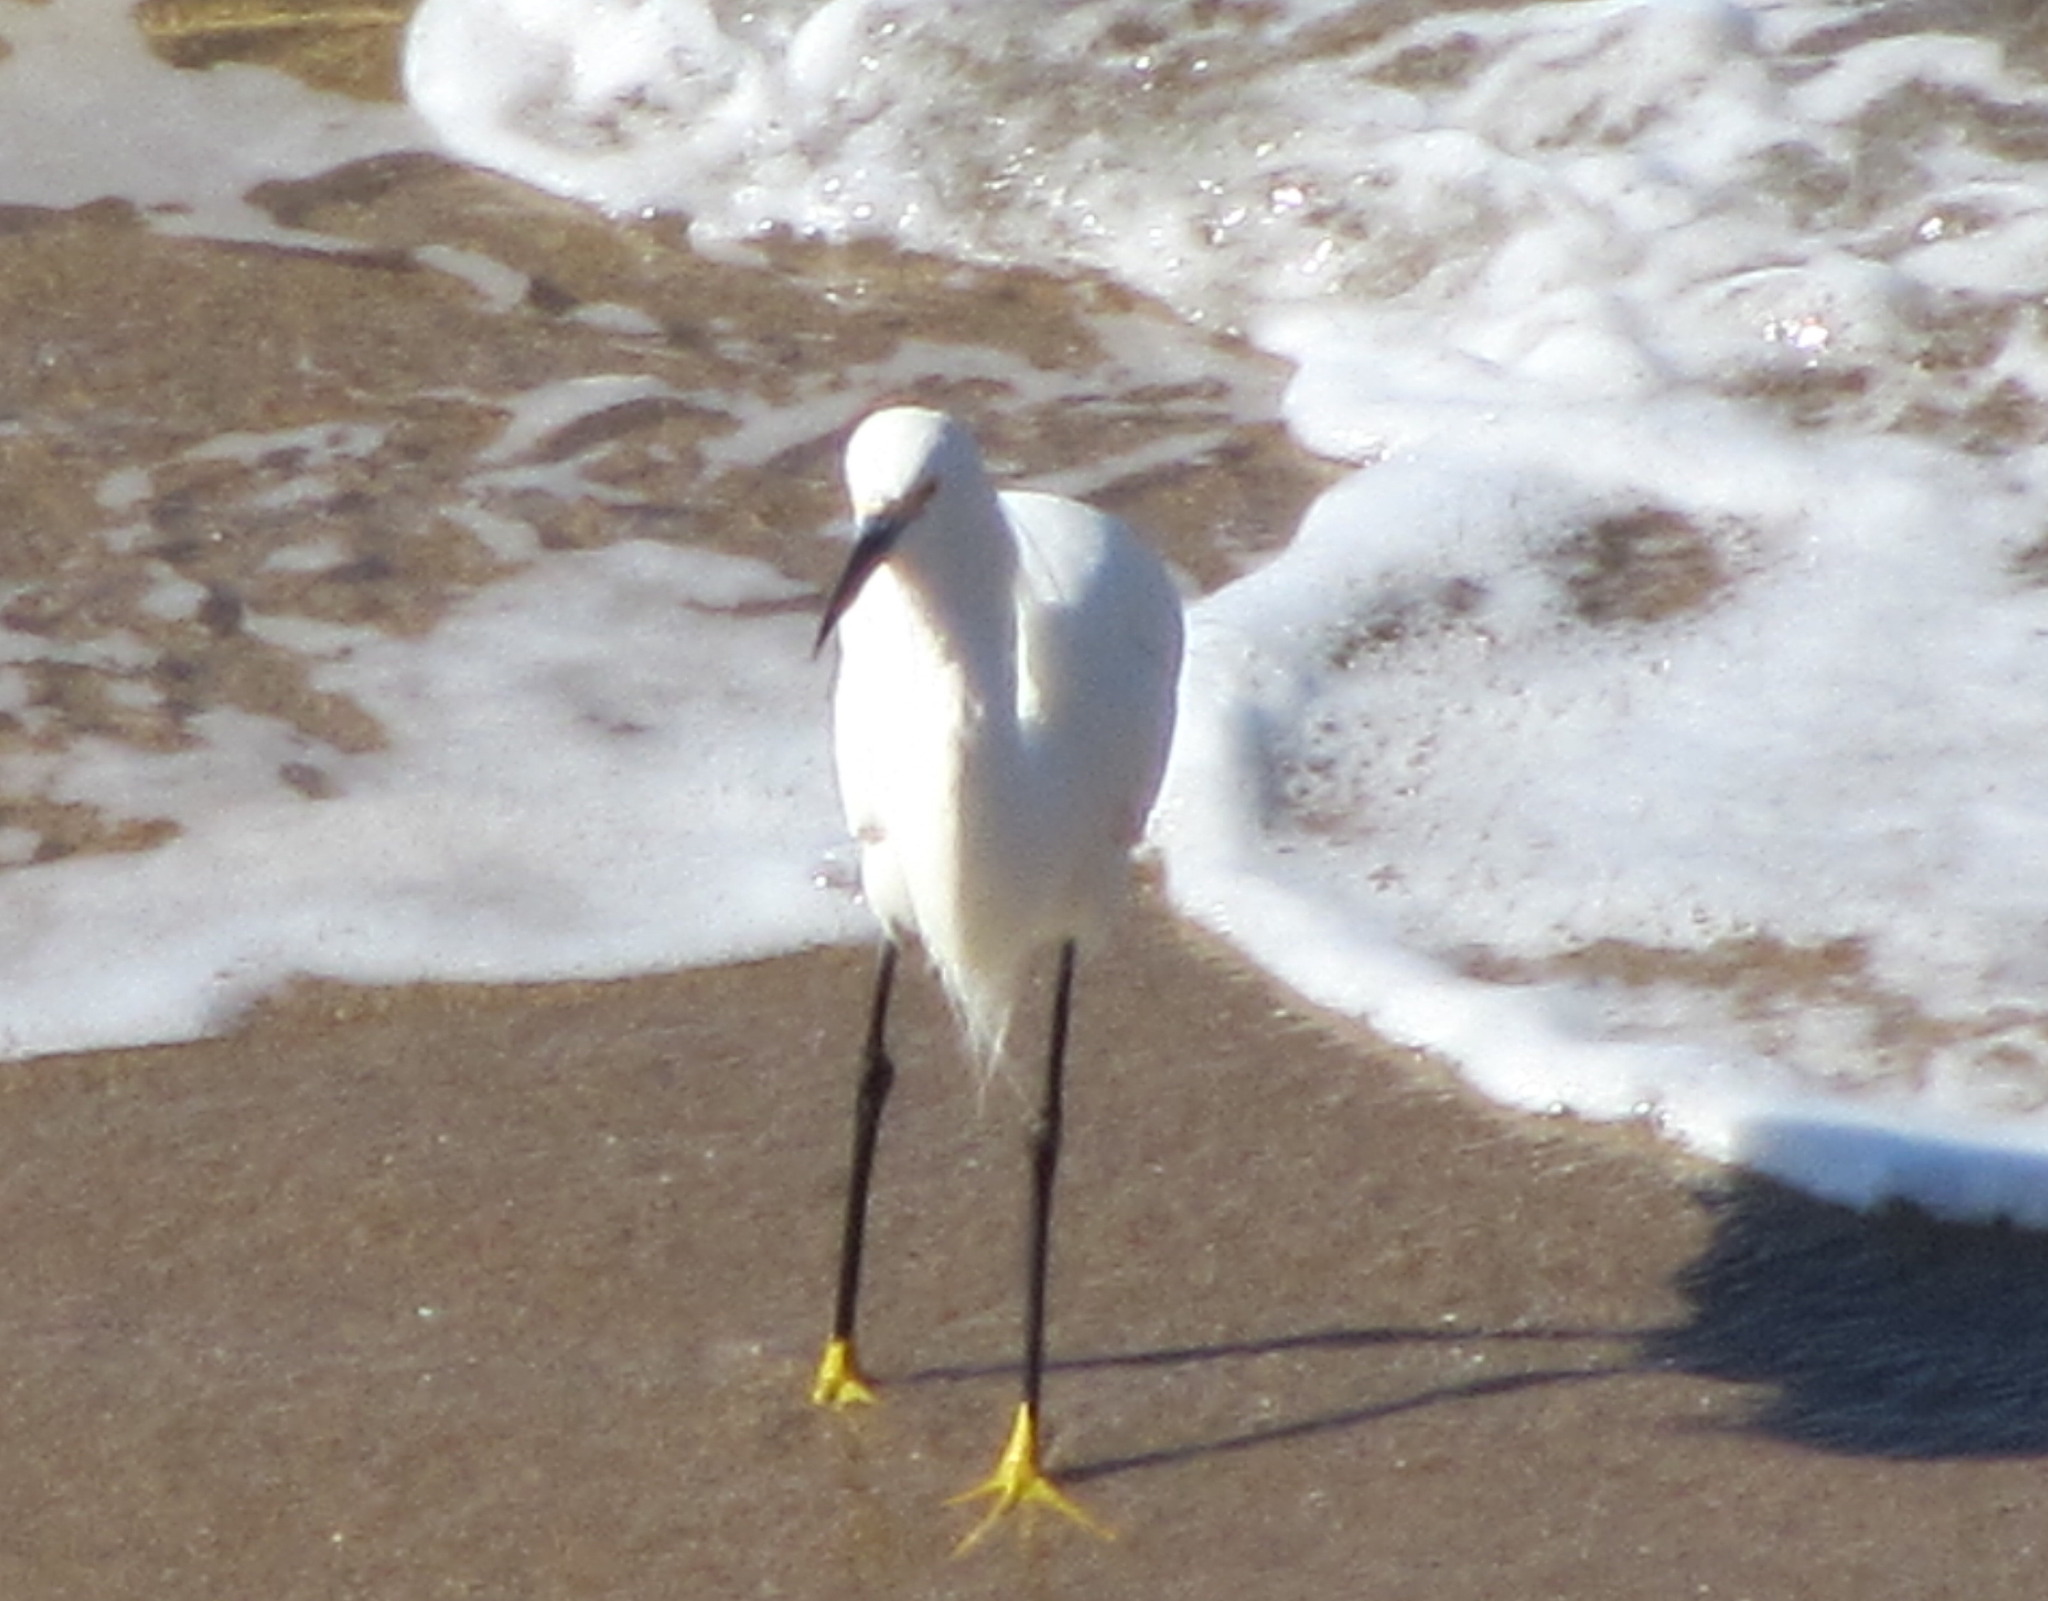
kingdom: Animalia
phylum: Chordata
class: Aves
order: Pelecaniformes
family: Ardeidae
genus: Egretta
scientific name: Egretta thula
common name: Snowy egret
